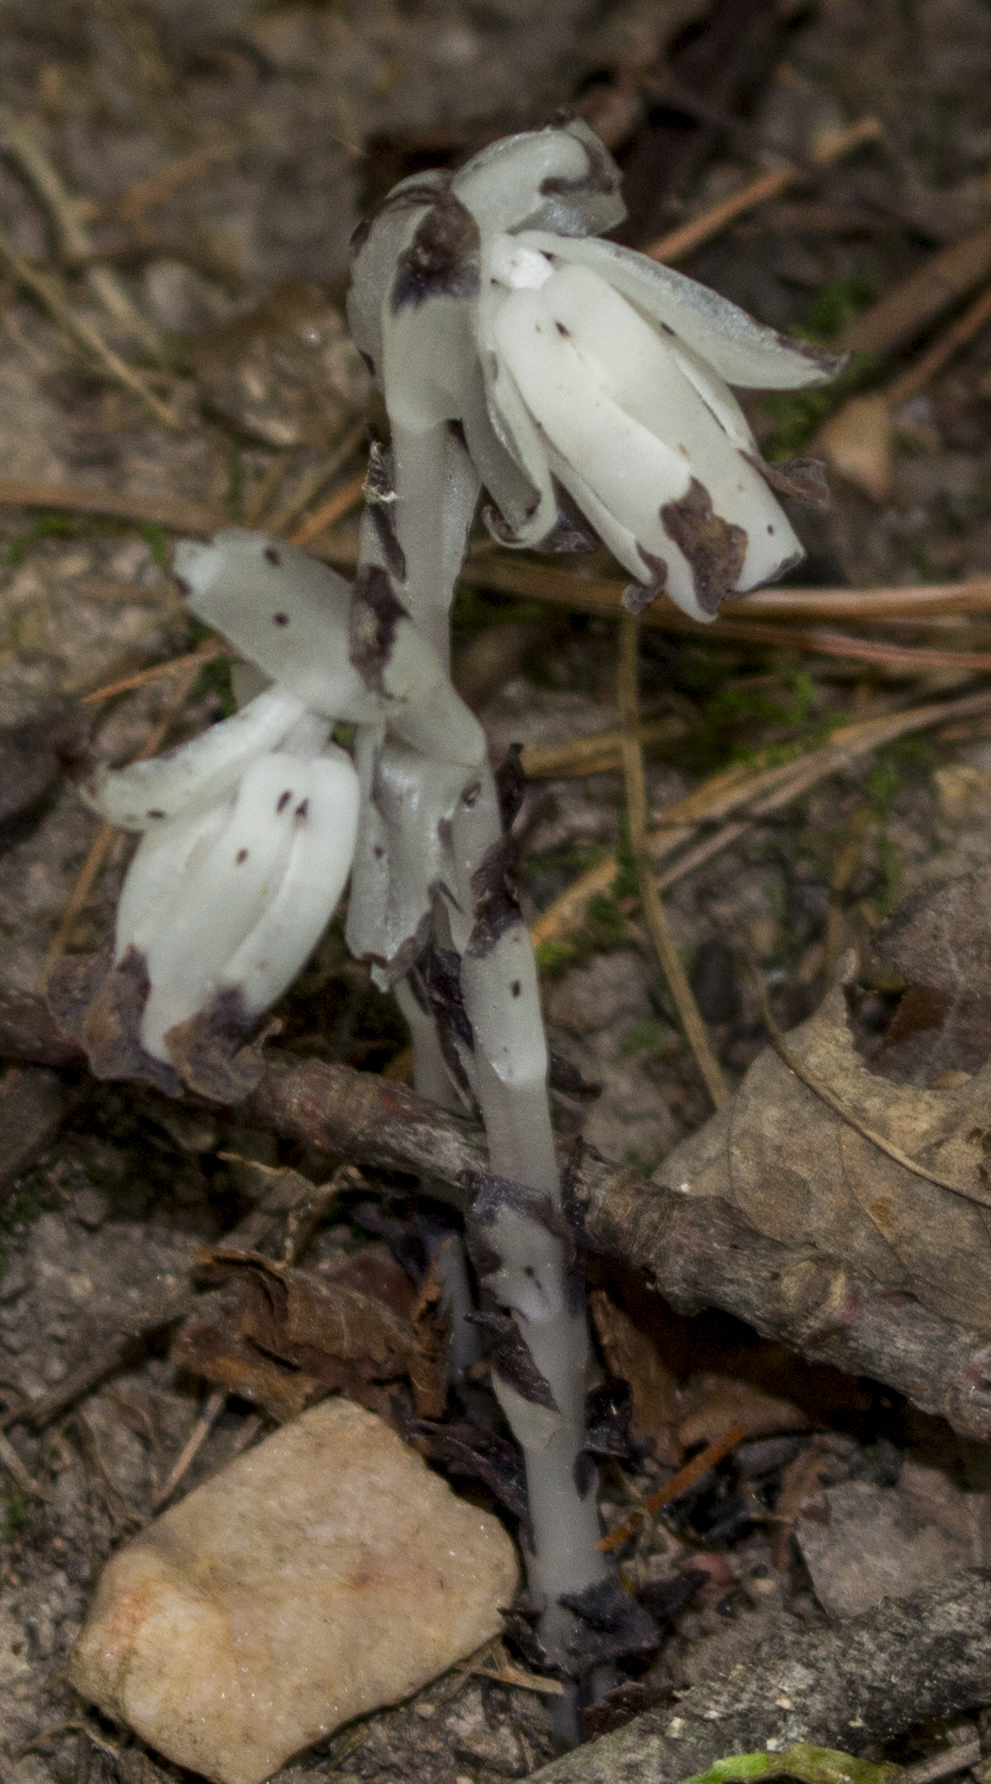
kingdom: Plantae
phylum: Tracheophyta
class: Magnoliopsida
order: Ericales
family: Ericaceae
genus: Monotropa
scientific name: Monotropa uniflora
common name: Convulsion root
